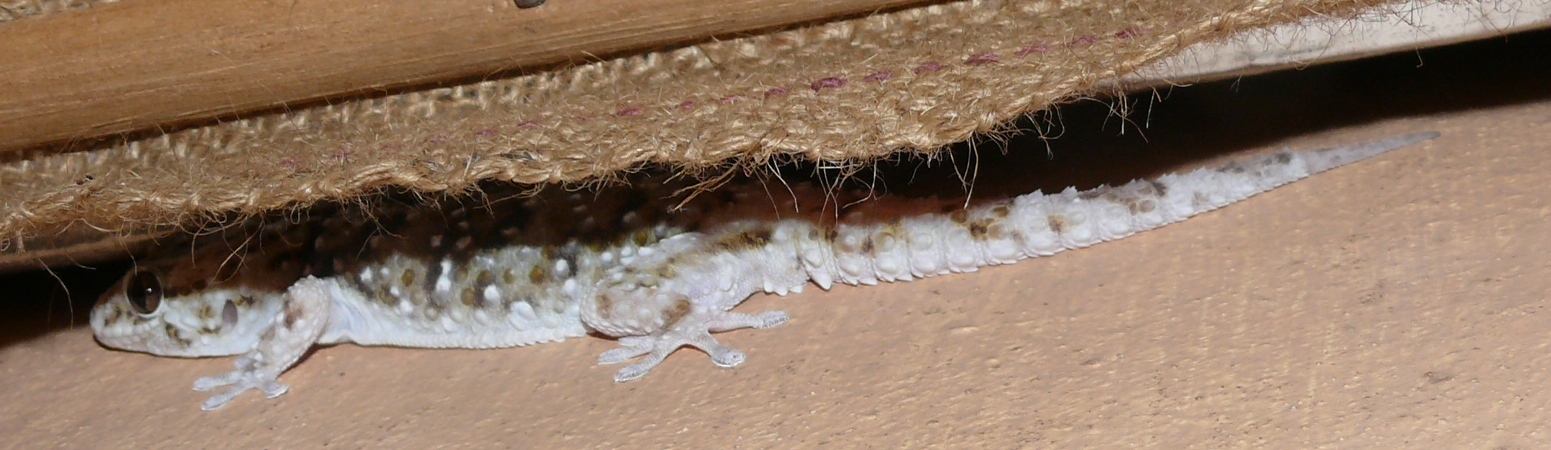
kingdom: Animalia
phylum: Chordata
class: Squamata
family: Gekkonidae
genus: Chondrodactylus
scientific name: Chondrodactylus bibronii
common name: Bibron's gecko
